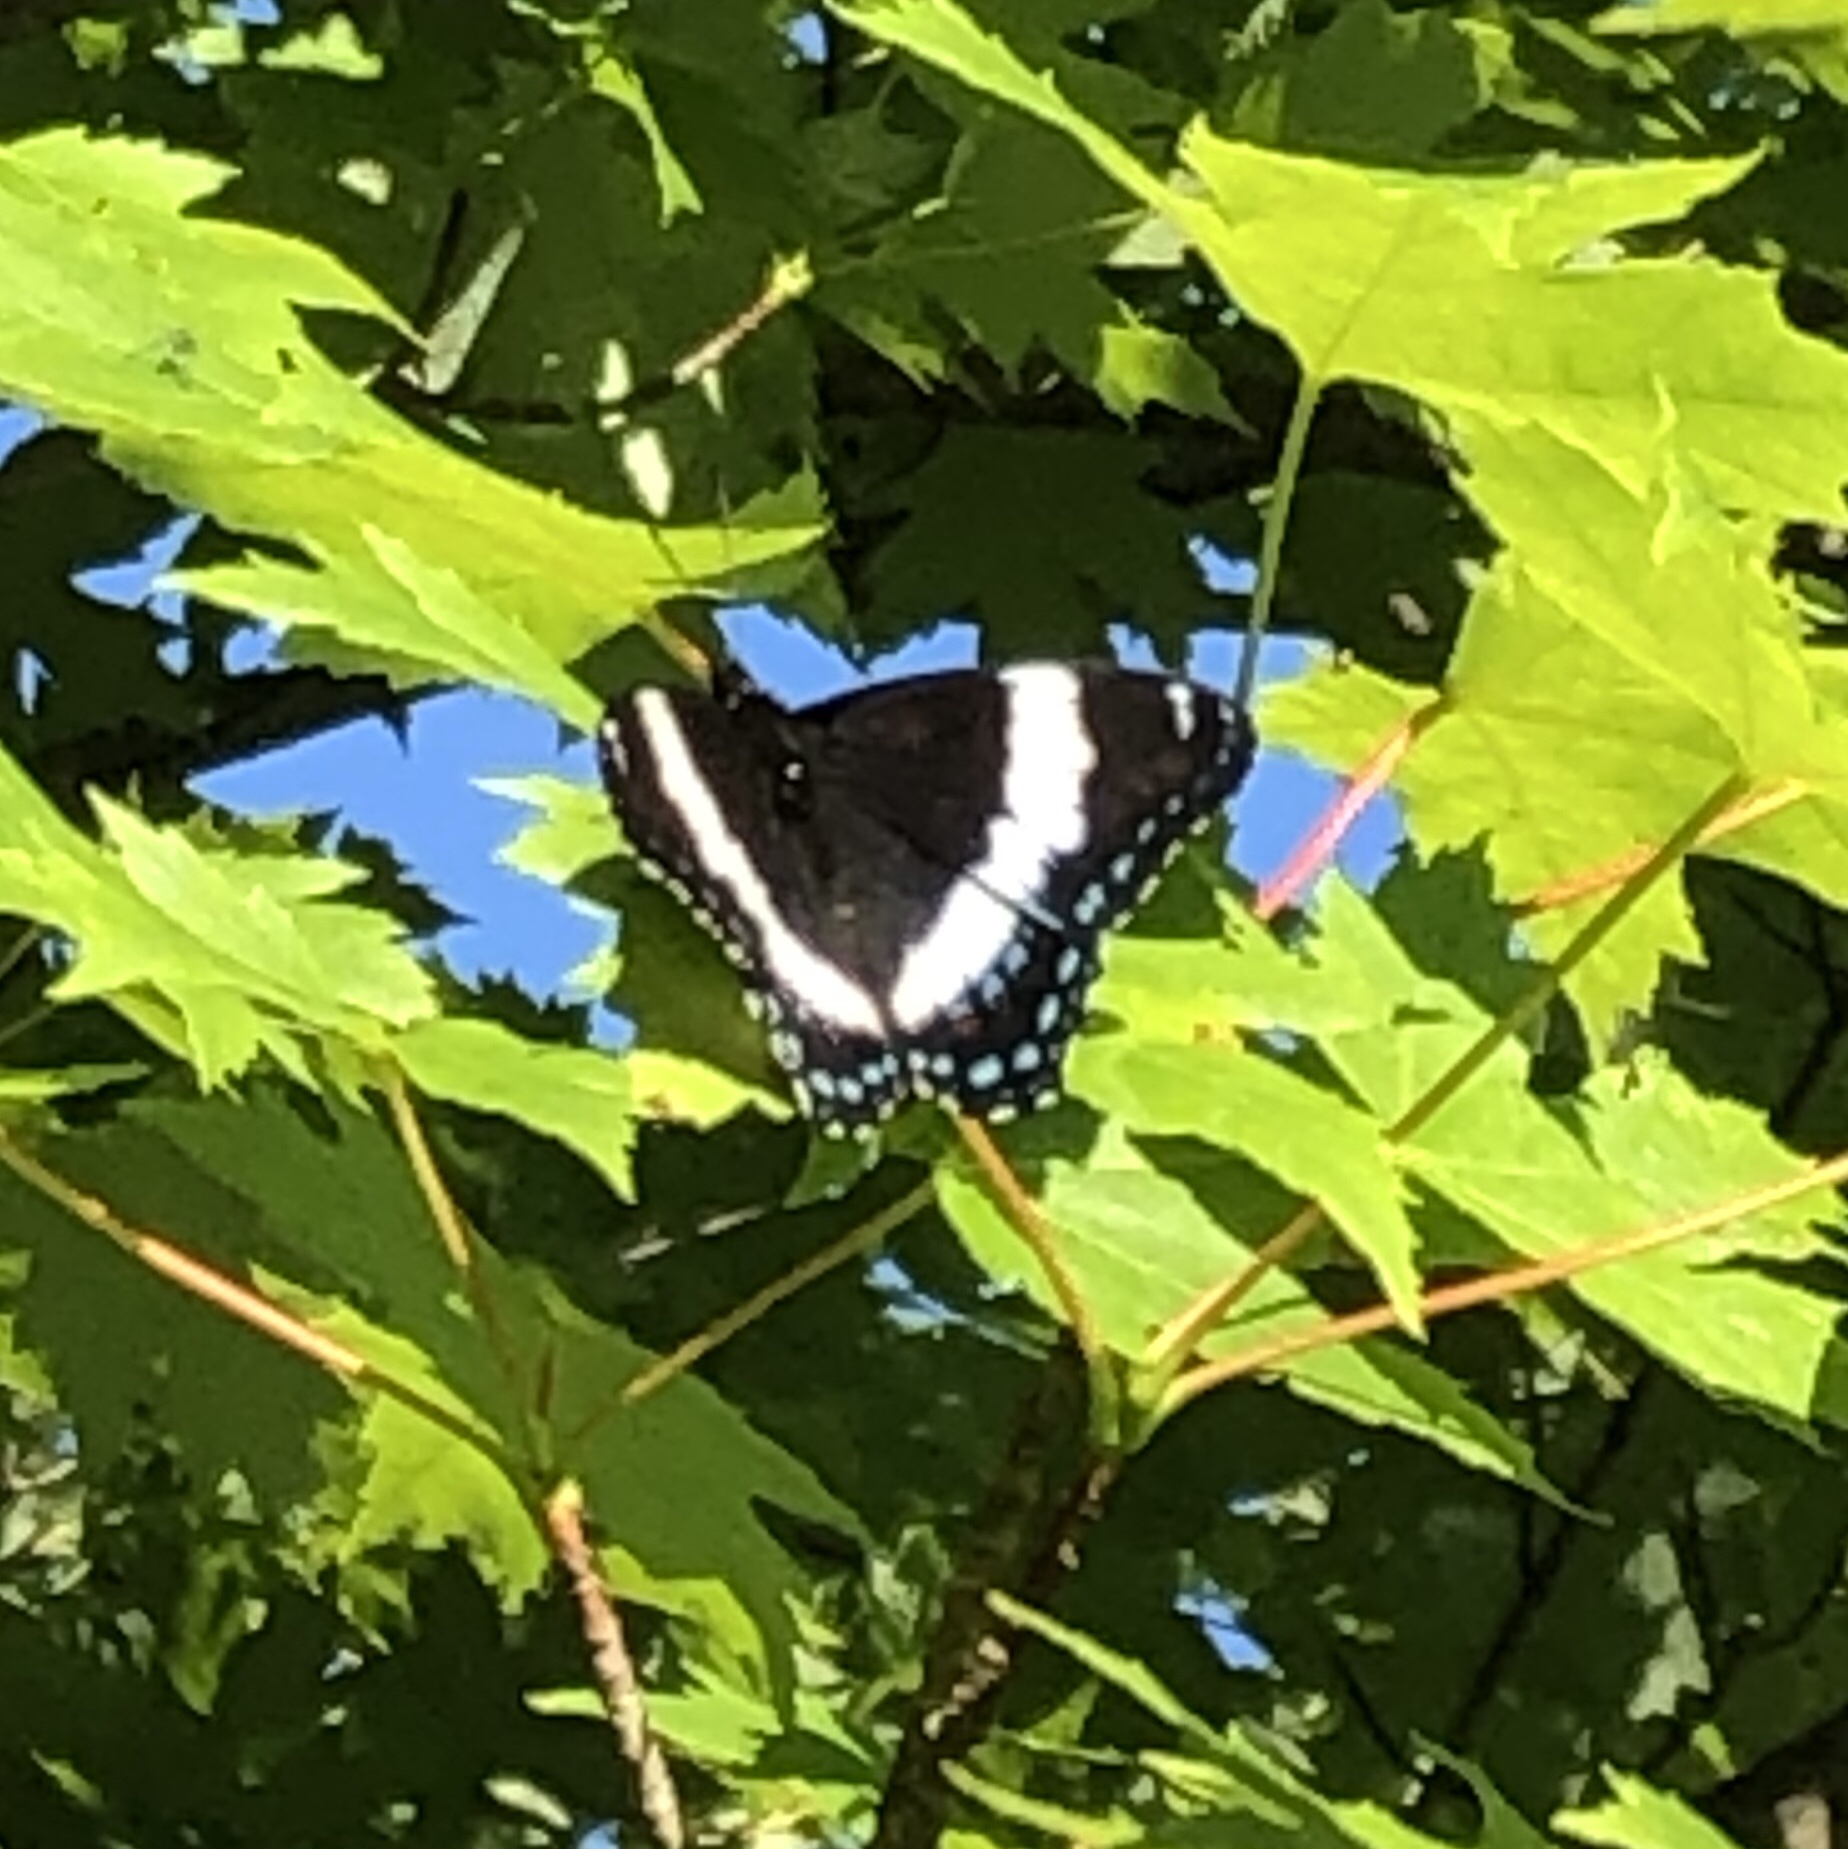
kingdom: Animalia
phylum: Arthropoda
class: Insecta
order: Lepidoptera
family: Nymphalidae
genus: Limenitis
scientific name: Limenitis arthemis
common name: Red-spotted admiral
